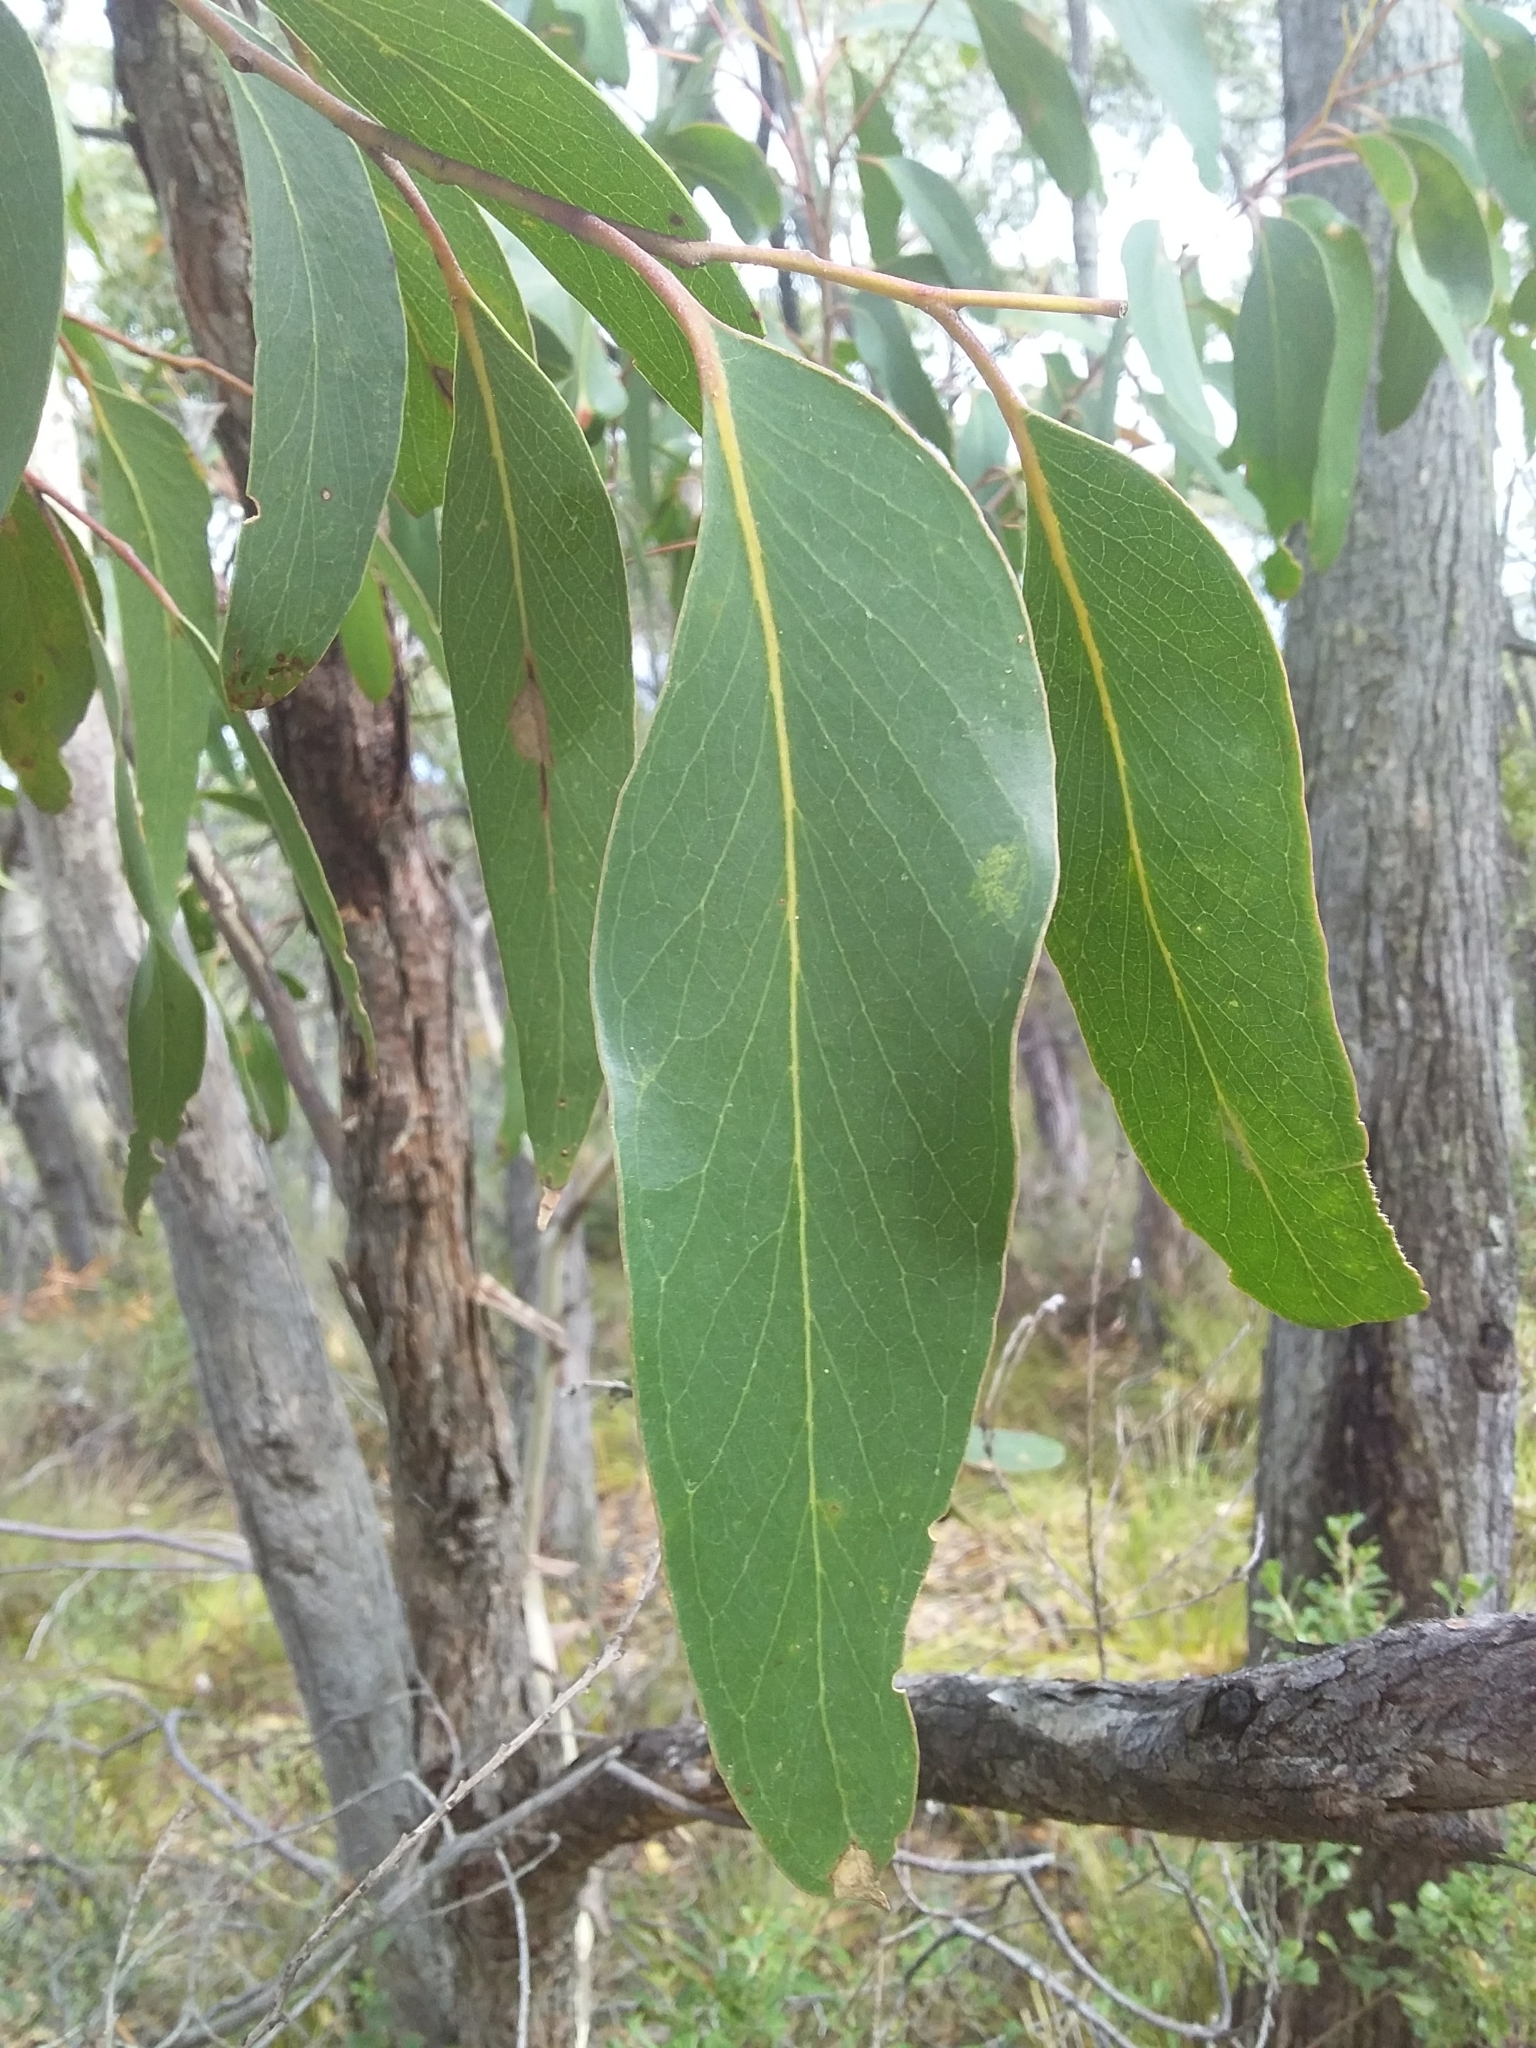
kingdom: Plantae
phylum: Tracheophyta
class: Magnoliopsida
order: Myrtales
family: Myrtaceae
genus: Eucalyptus
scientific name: Eucalyptus baxteri
